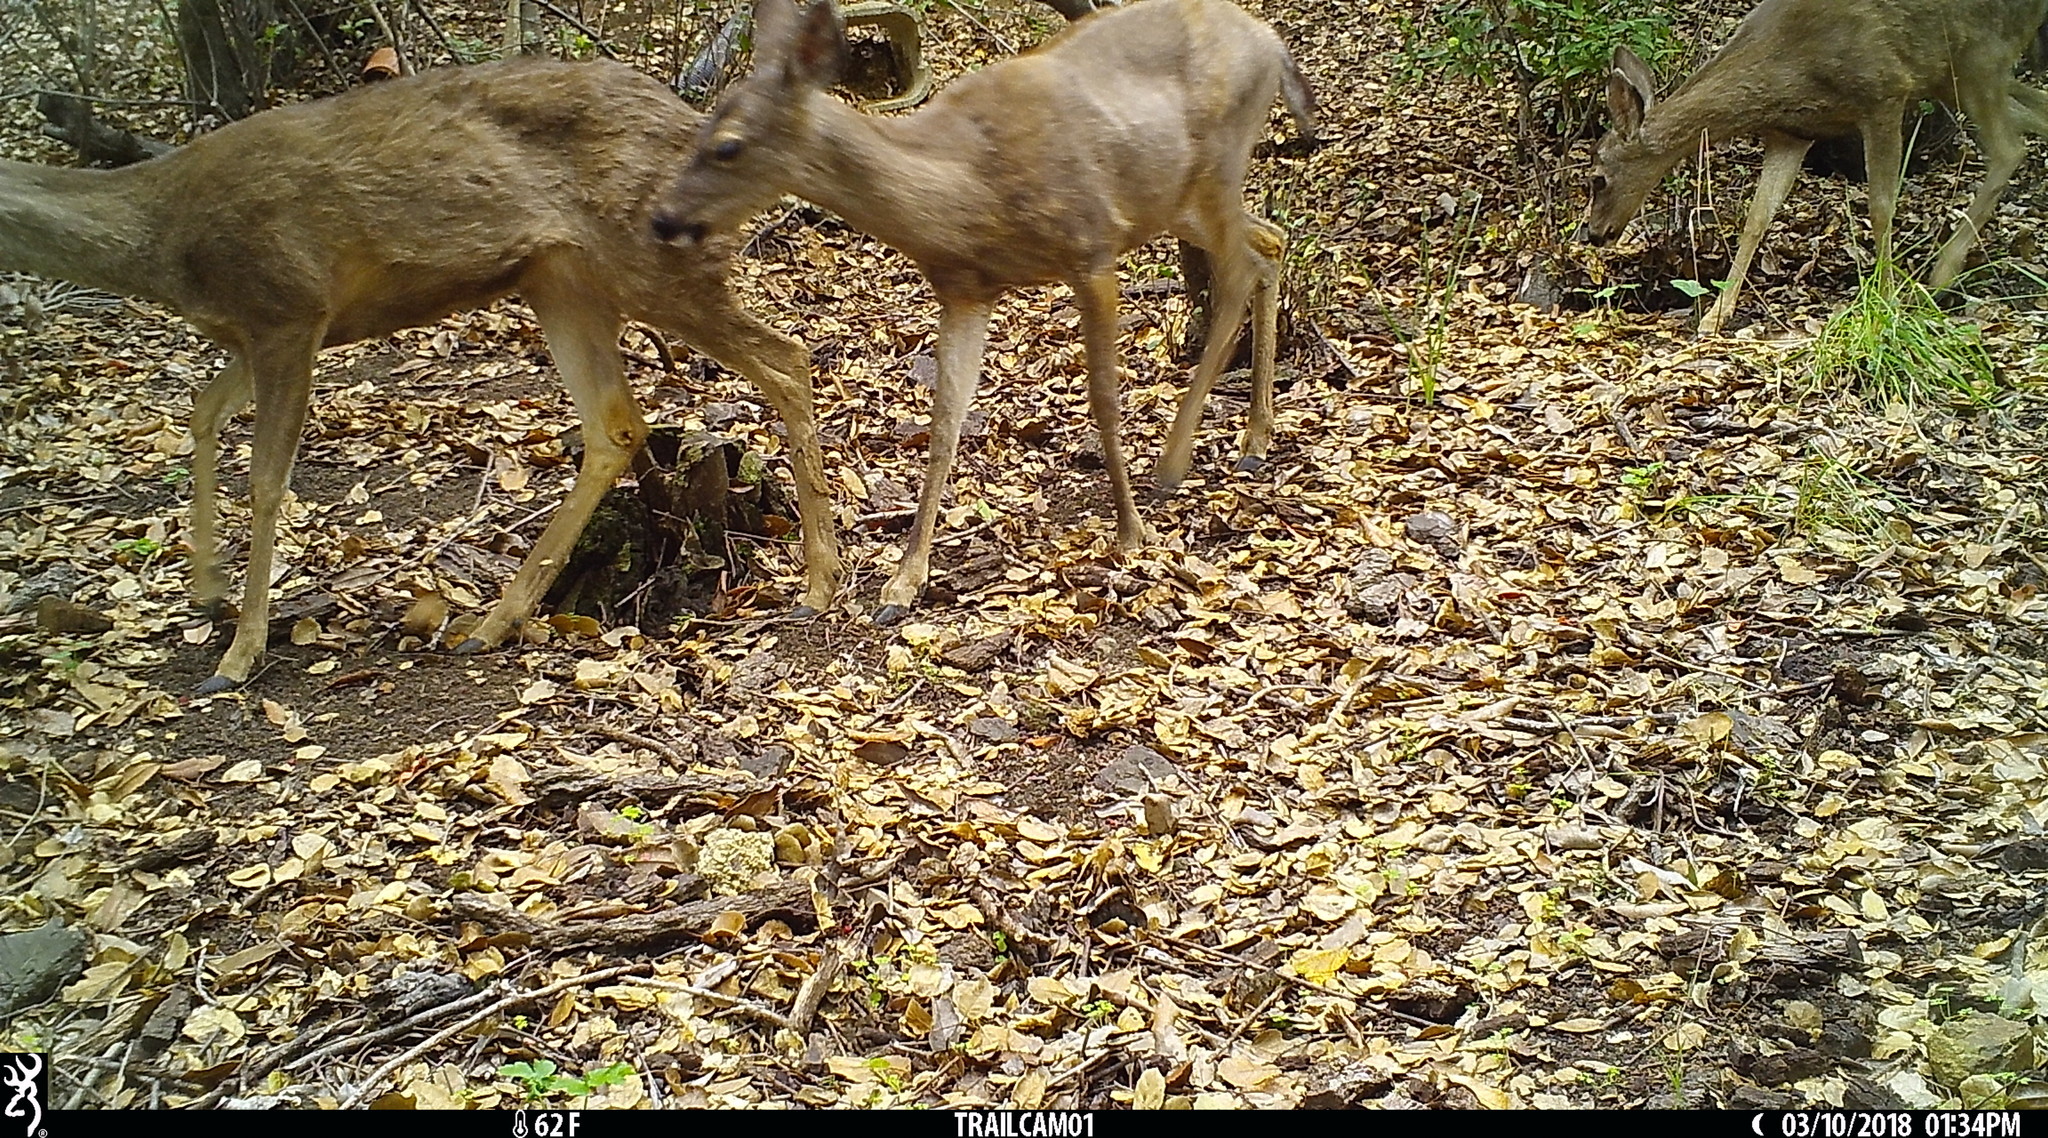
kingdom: Animalia
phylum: Chordata
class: Mammalia
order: Artiodactyla
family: Cervidae
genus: Odocoileus
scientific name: Odocoileus hemionus
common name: Mule deer
